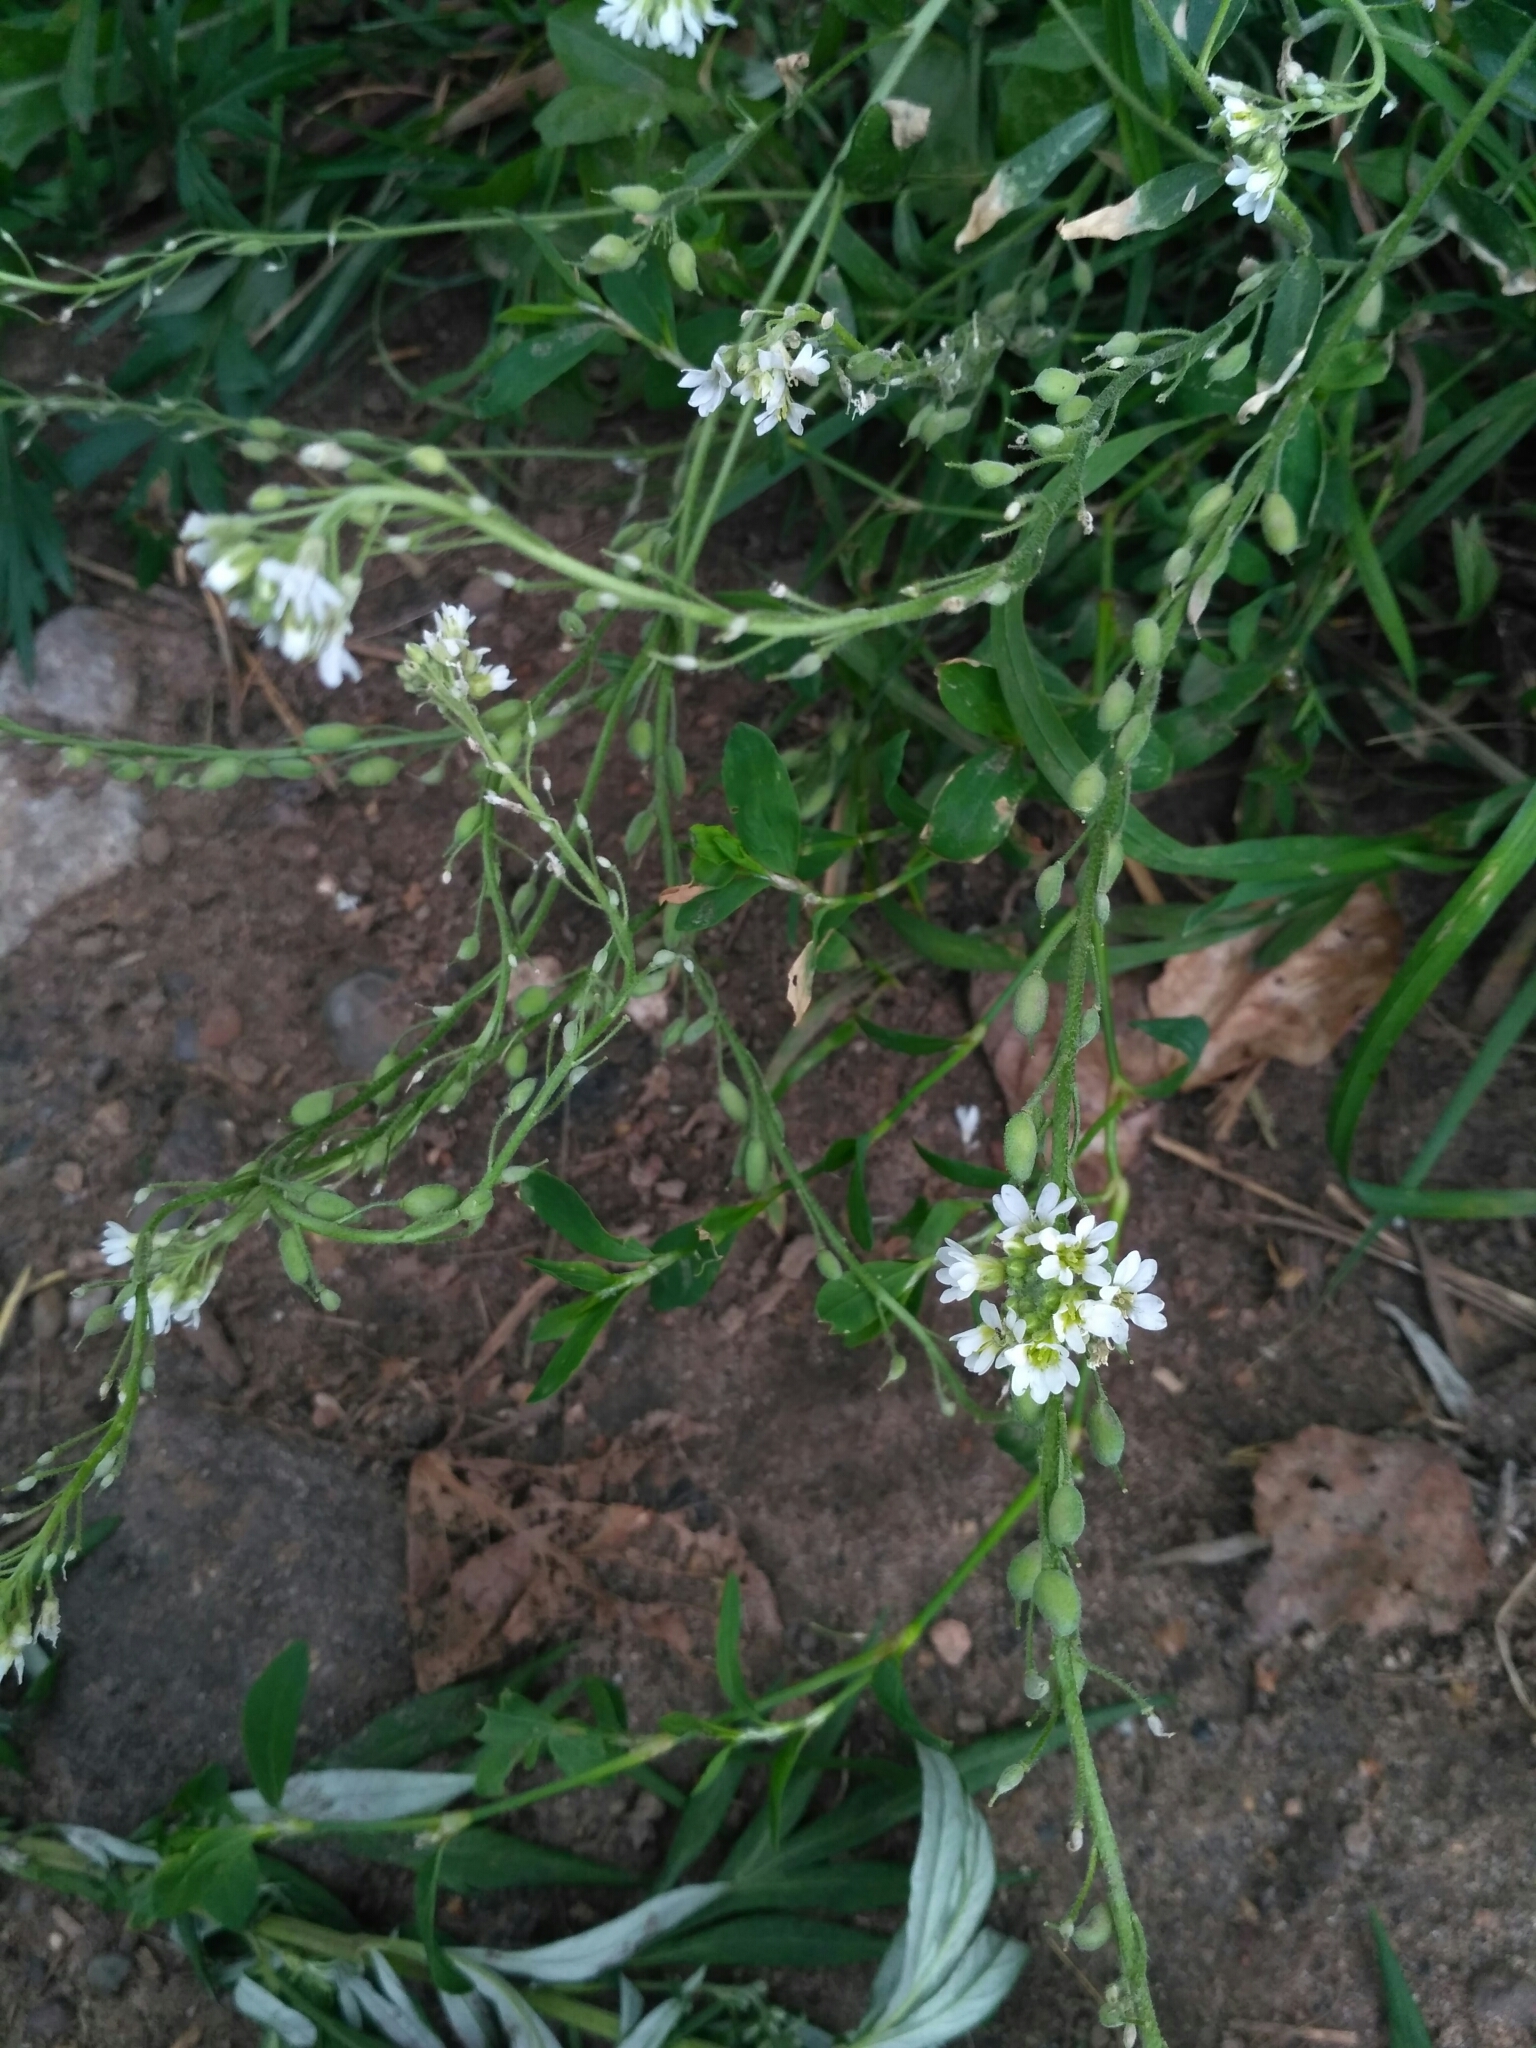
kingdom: Plantae
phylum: Tracheophyta
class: Magnoliopsida
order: Brassicales
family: Brassicaceae
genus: Berteroa
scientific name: Berteroa incana
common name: Hoary alison
